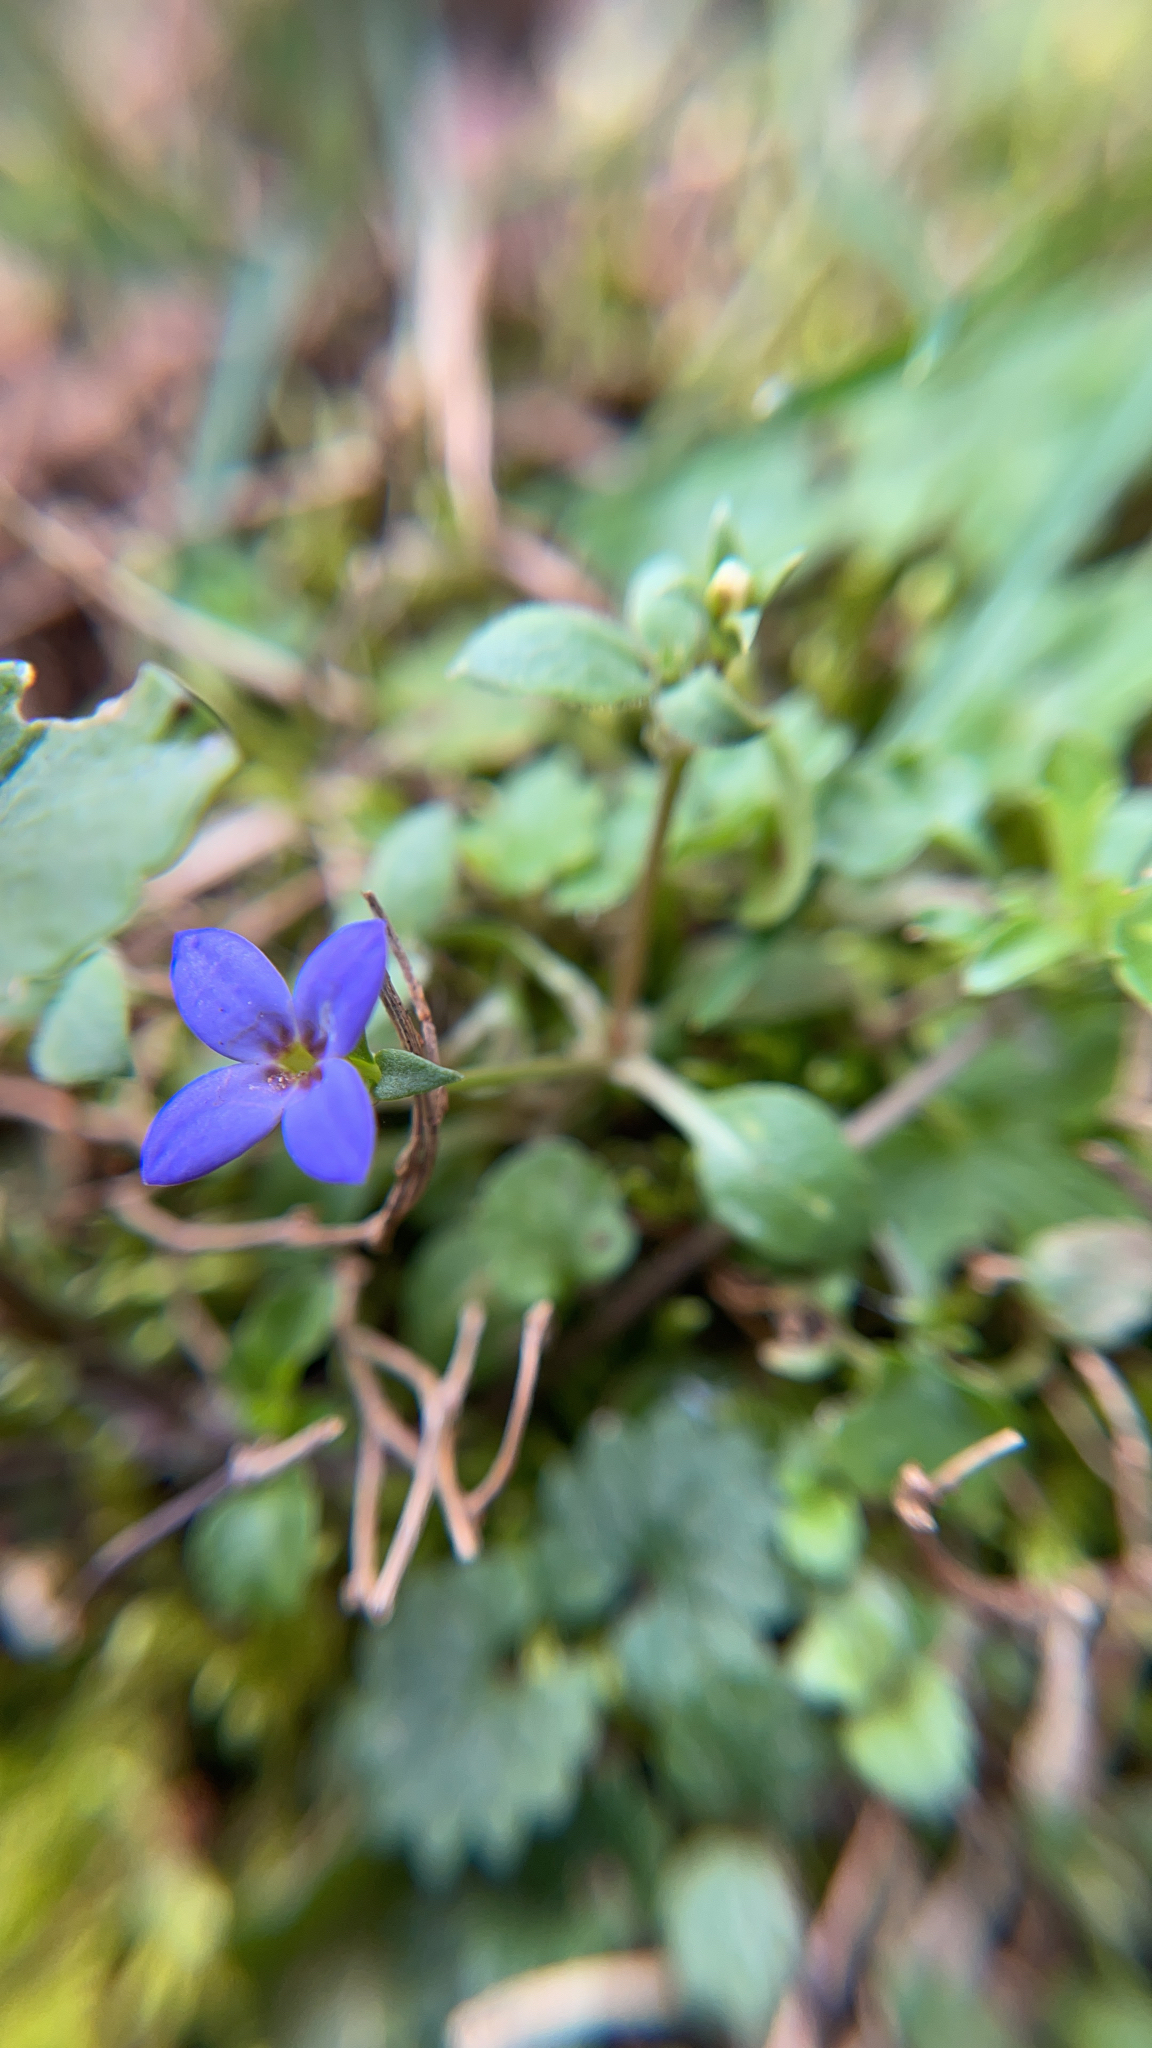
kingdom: Plantae
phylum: Tracheophyta
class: Magnoliopsida
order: Gentianales
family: Rubiaceae
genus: Houstonia
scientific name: Houstonia pusilla
